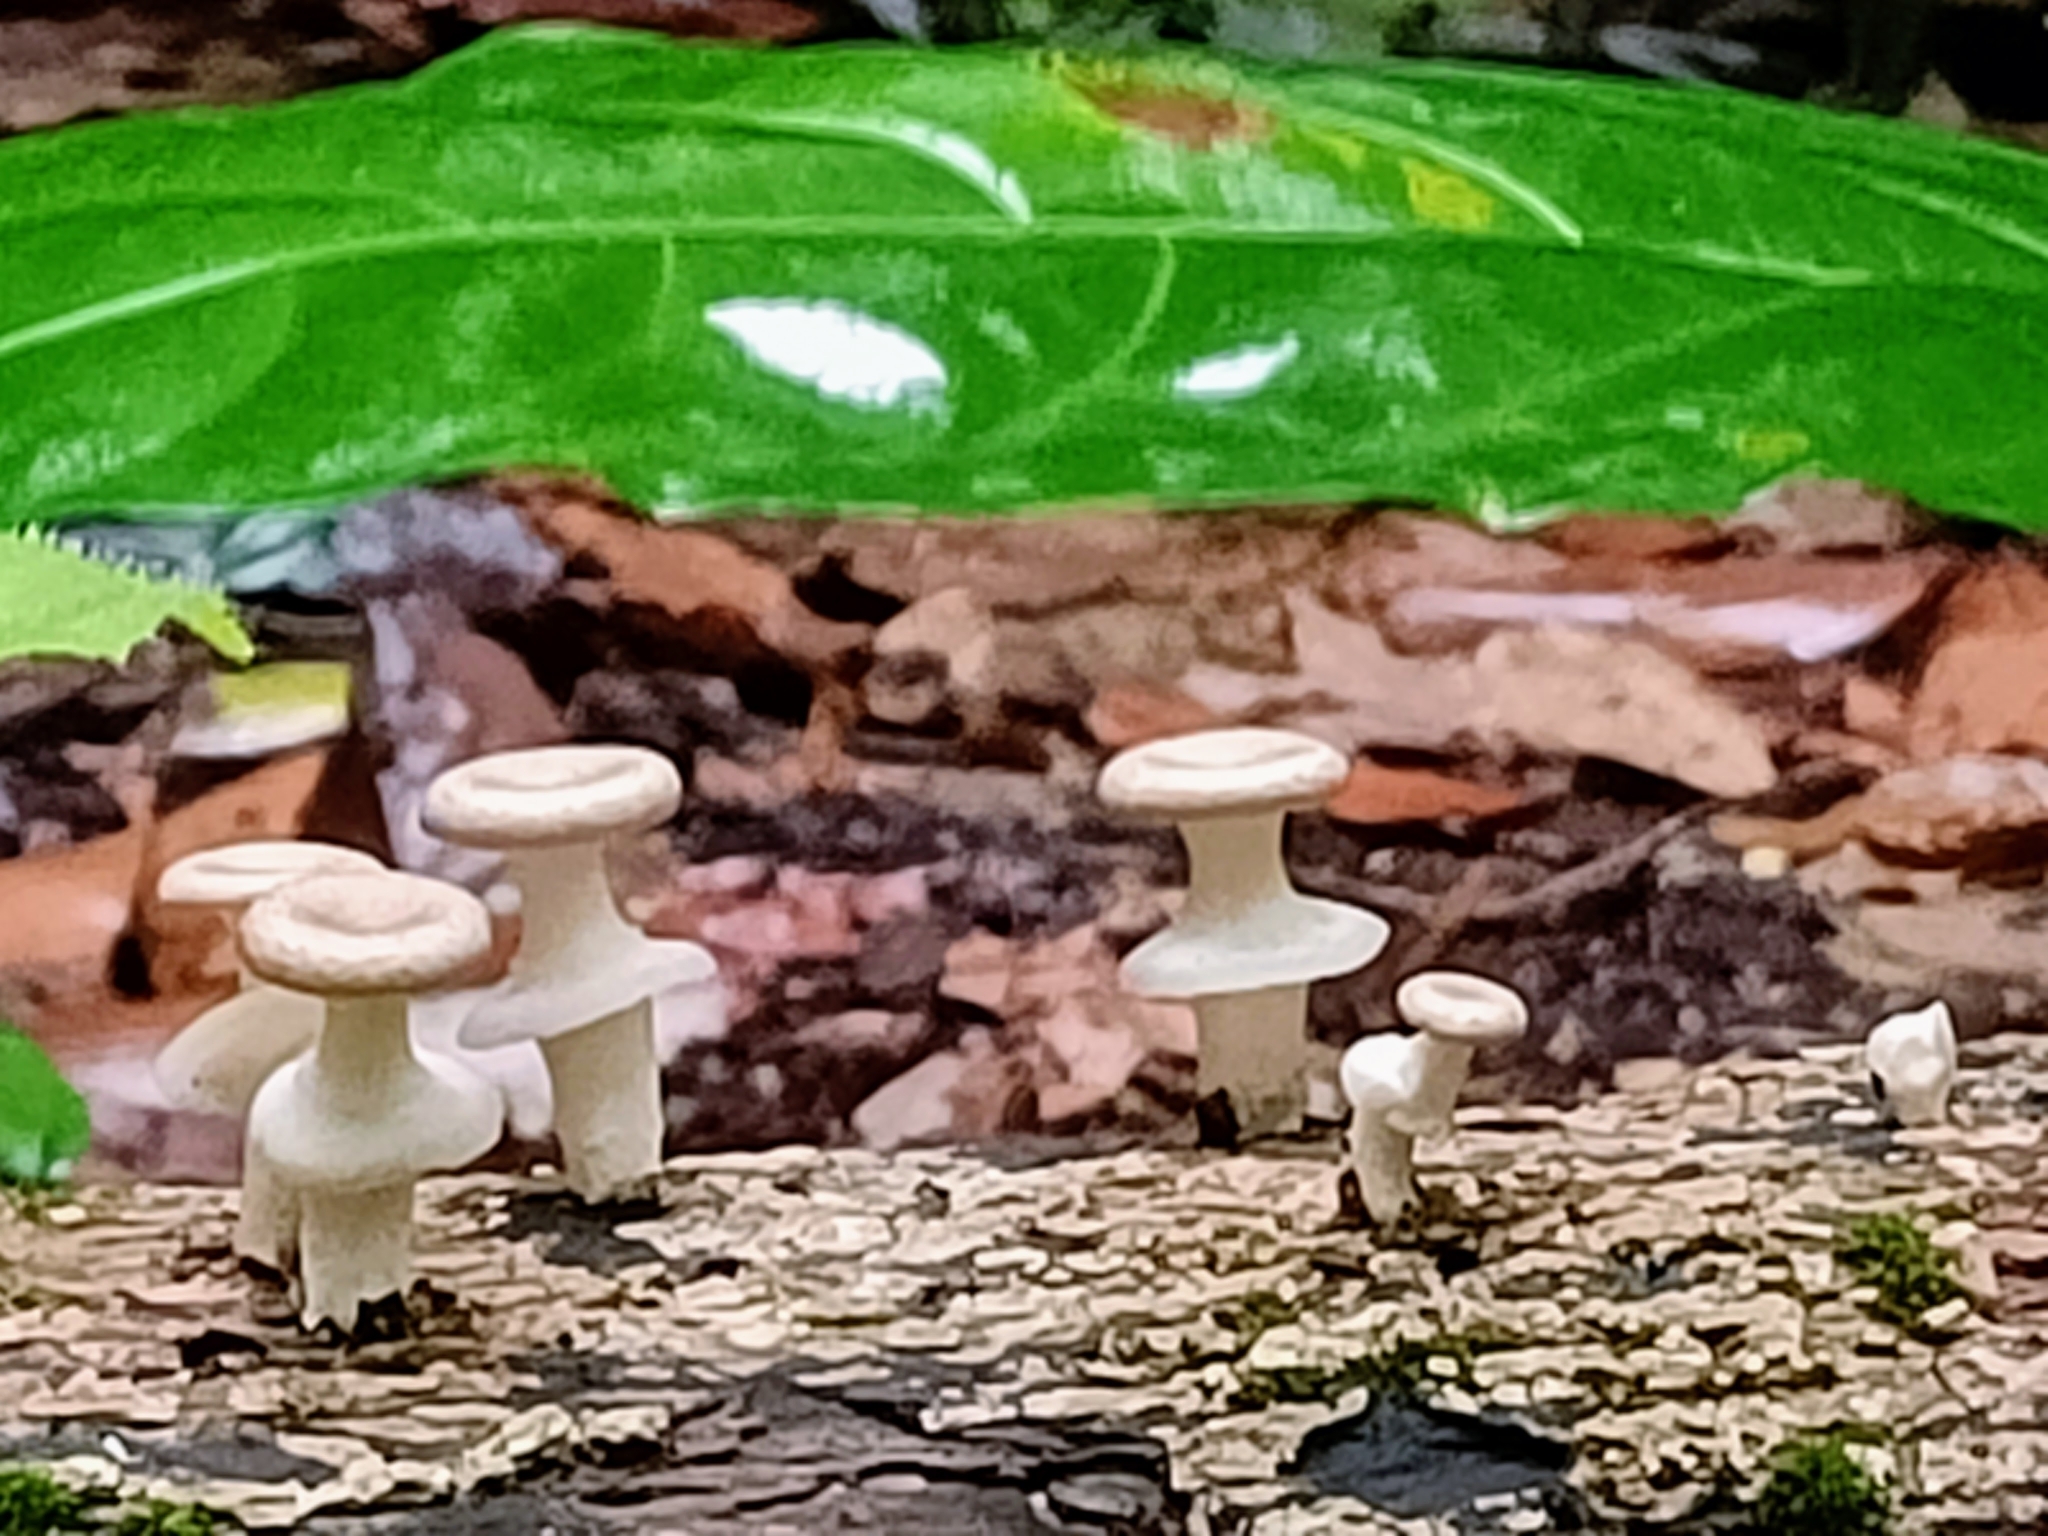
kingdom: Fungi
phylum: Basidiomycota
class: Agaricomycetes
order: Polyporales
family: Polyporaceae
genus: Lentinus
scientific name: Lentinus sajor-caju
